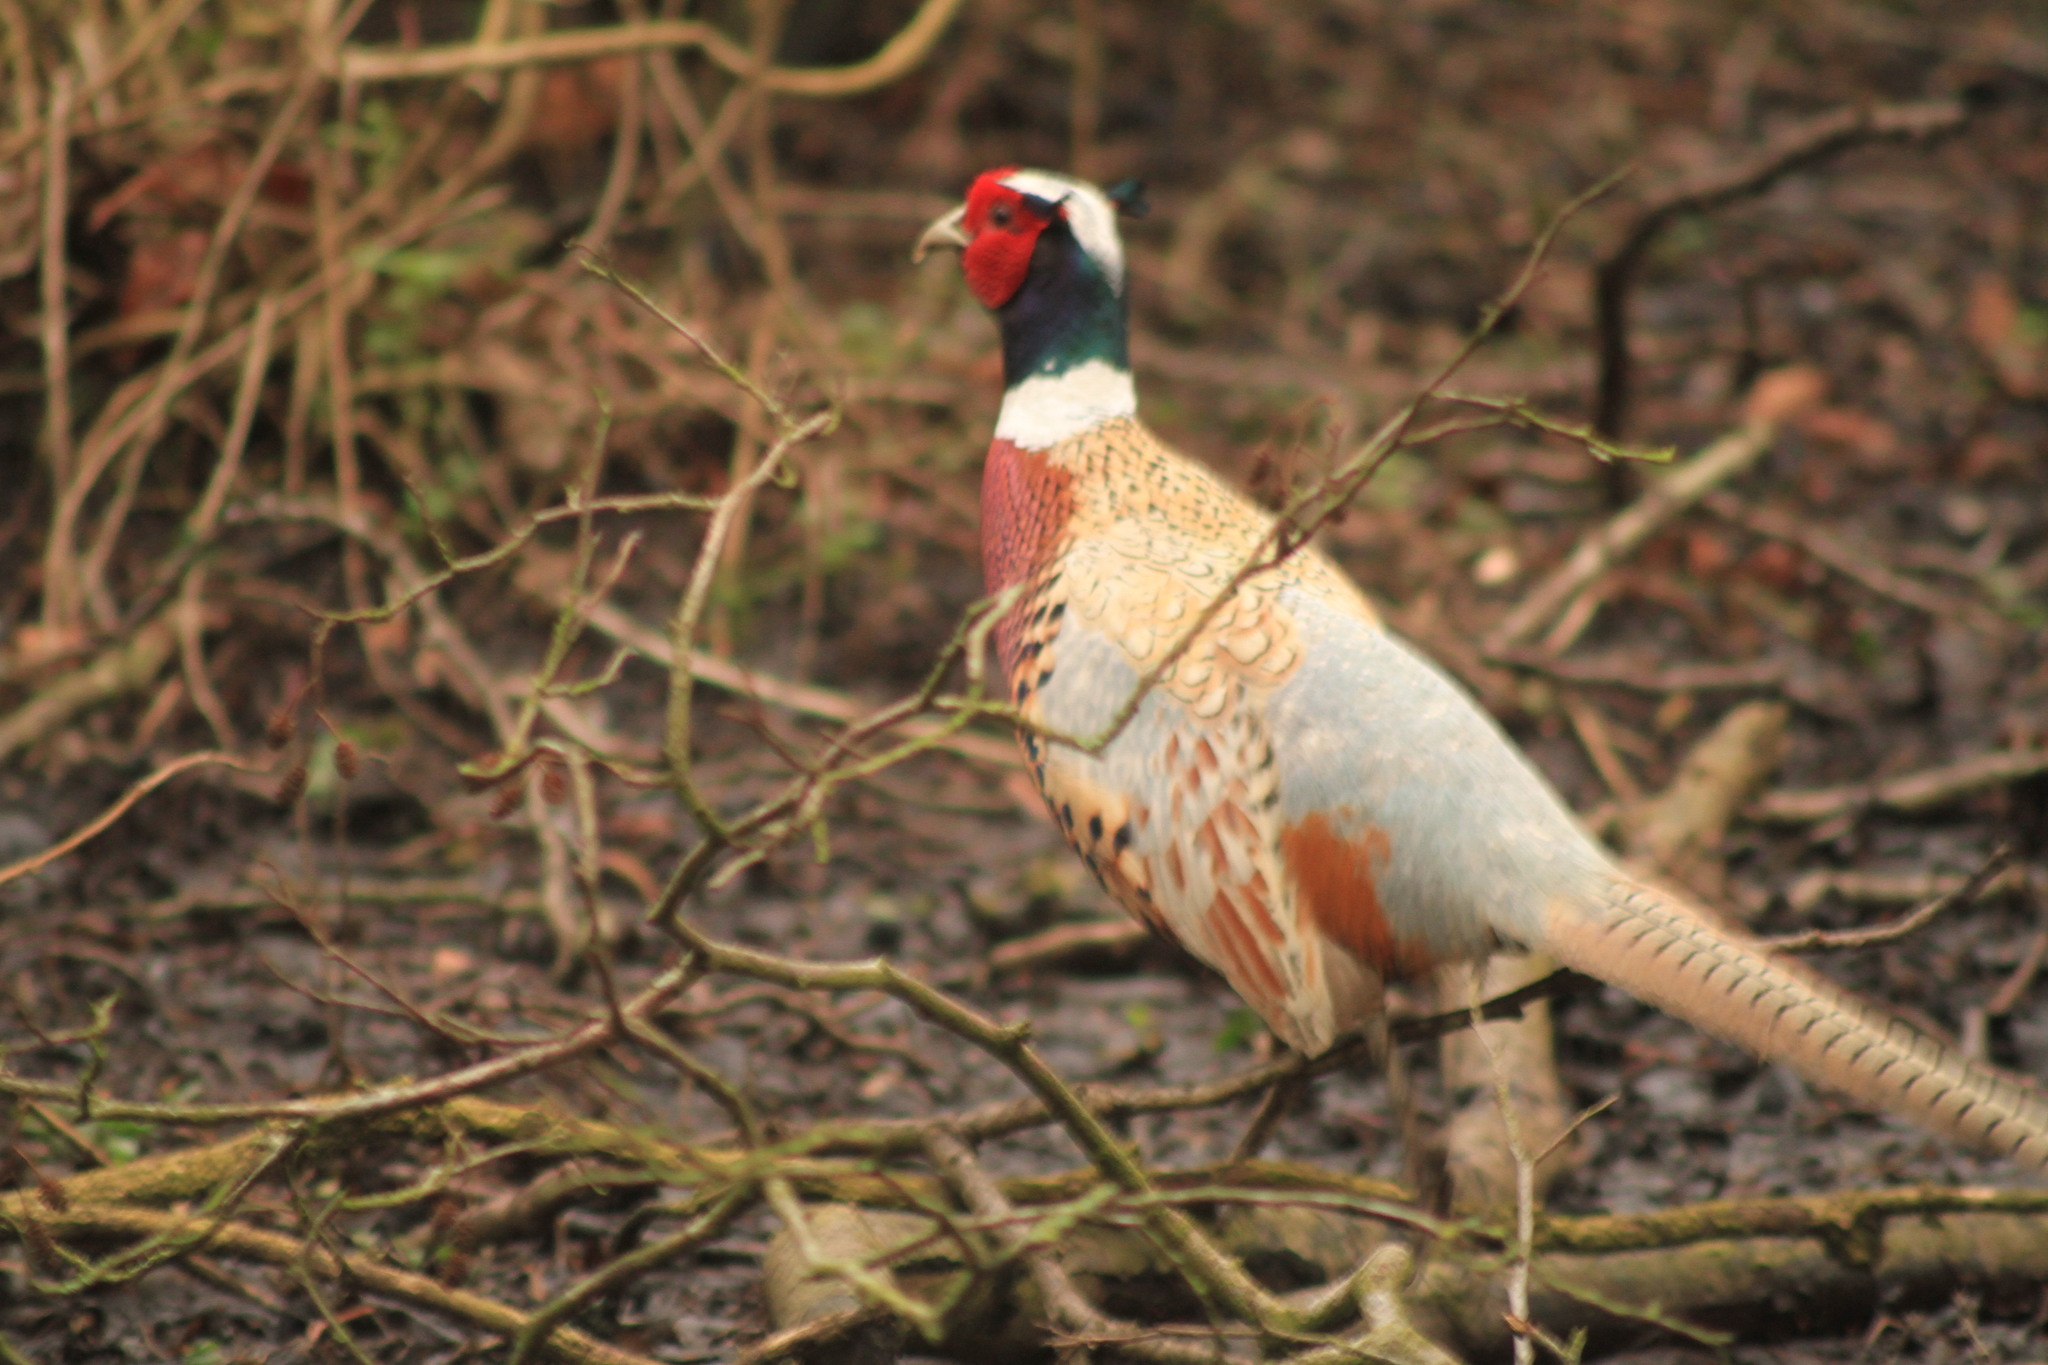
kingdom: Animalia
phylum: Chordata
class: Aves
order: Galliformes
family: Phasianidae
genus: Phasianus
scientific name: Phasianus colchicus
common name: Common pheasant
